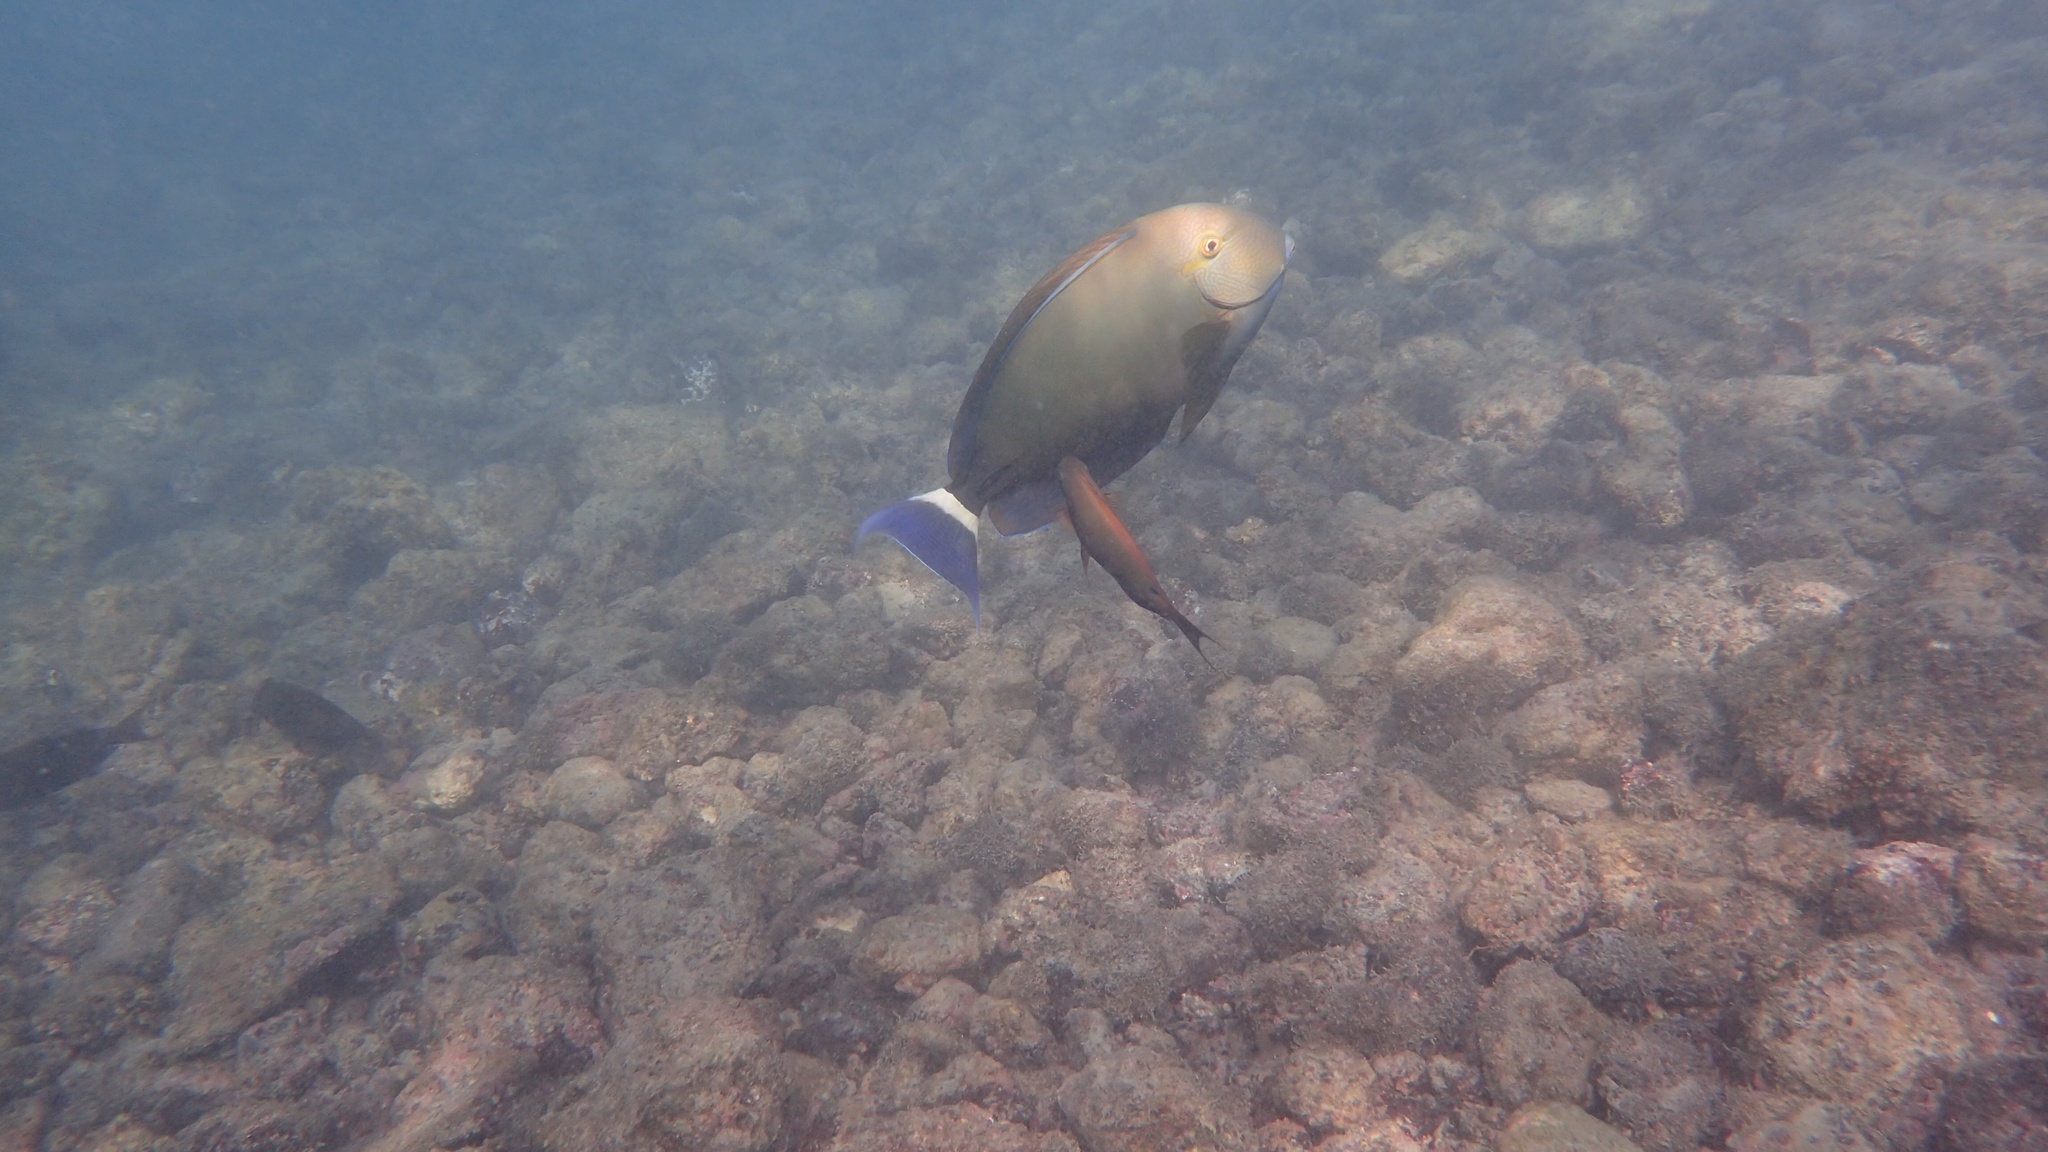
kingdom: Animalia
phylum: Chordata
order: Perciformes
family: Acanthuridae
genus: Acanthurus
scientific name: Acanthurus blochii
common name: Blue-banded pualu
